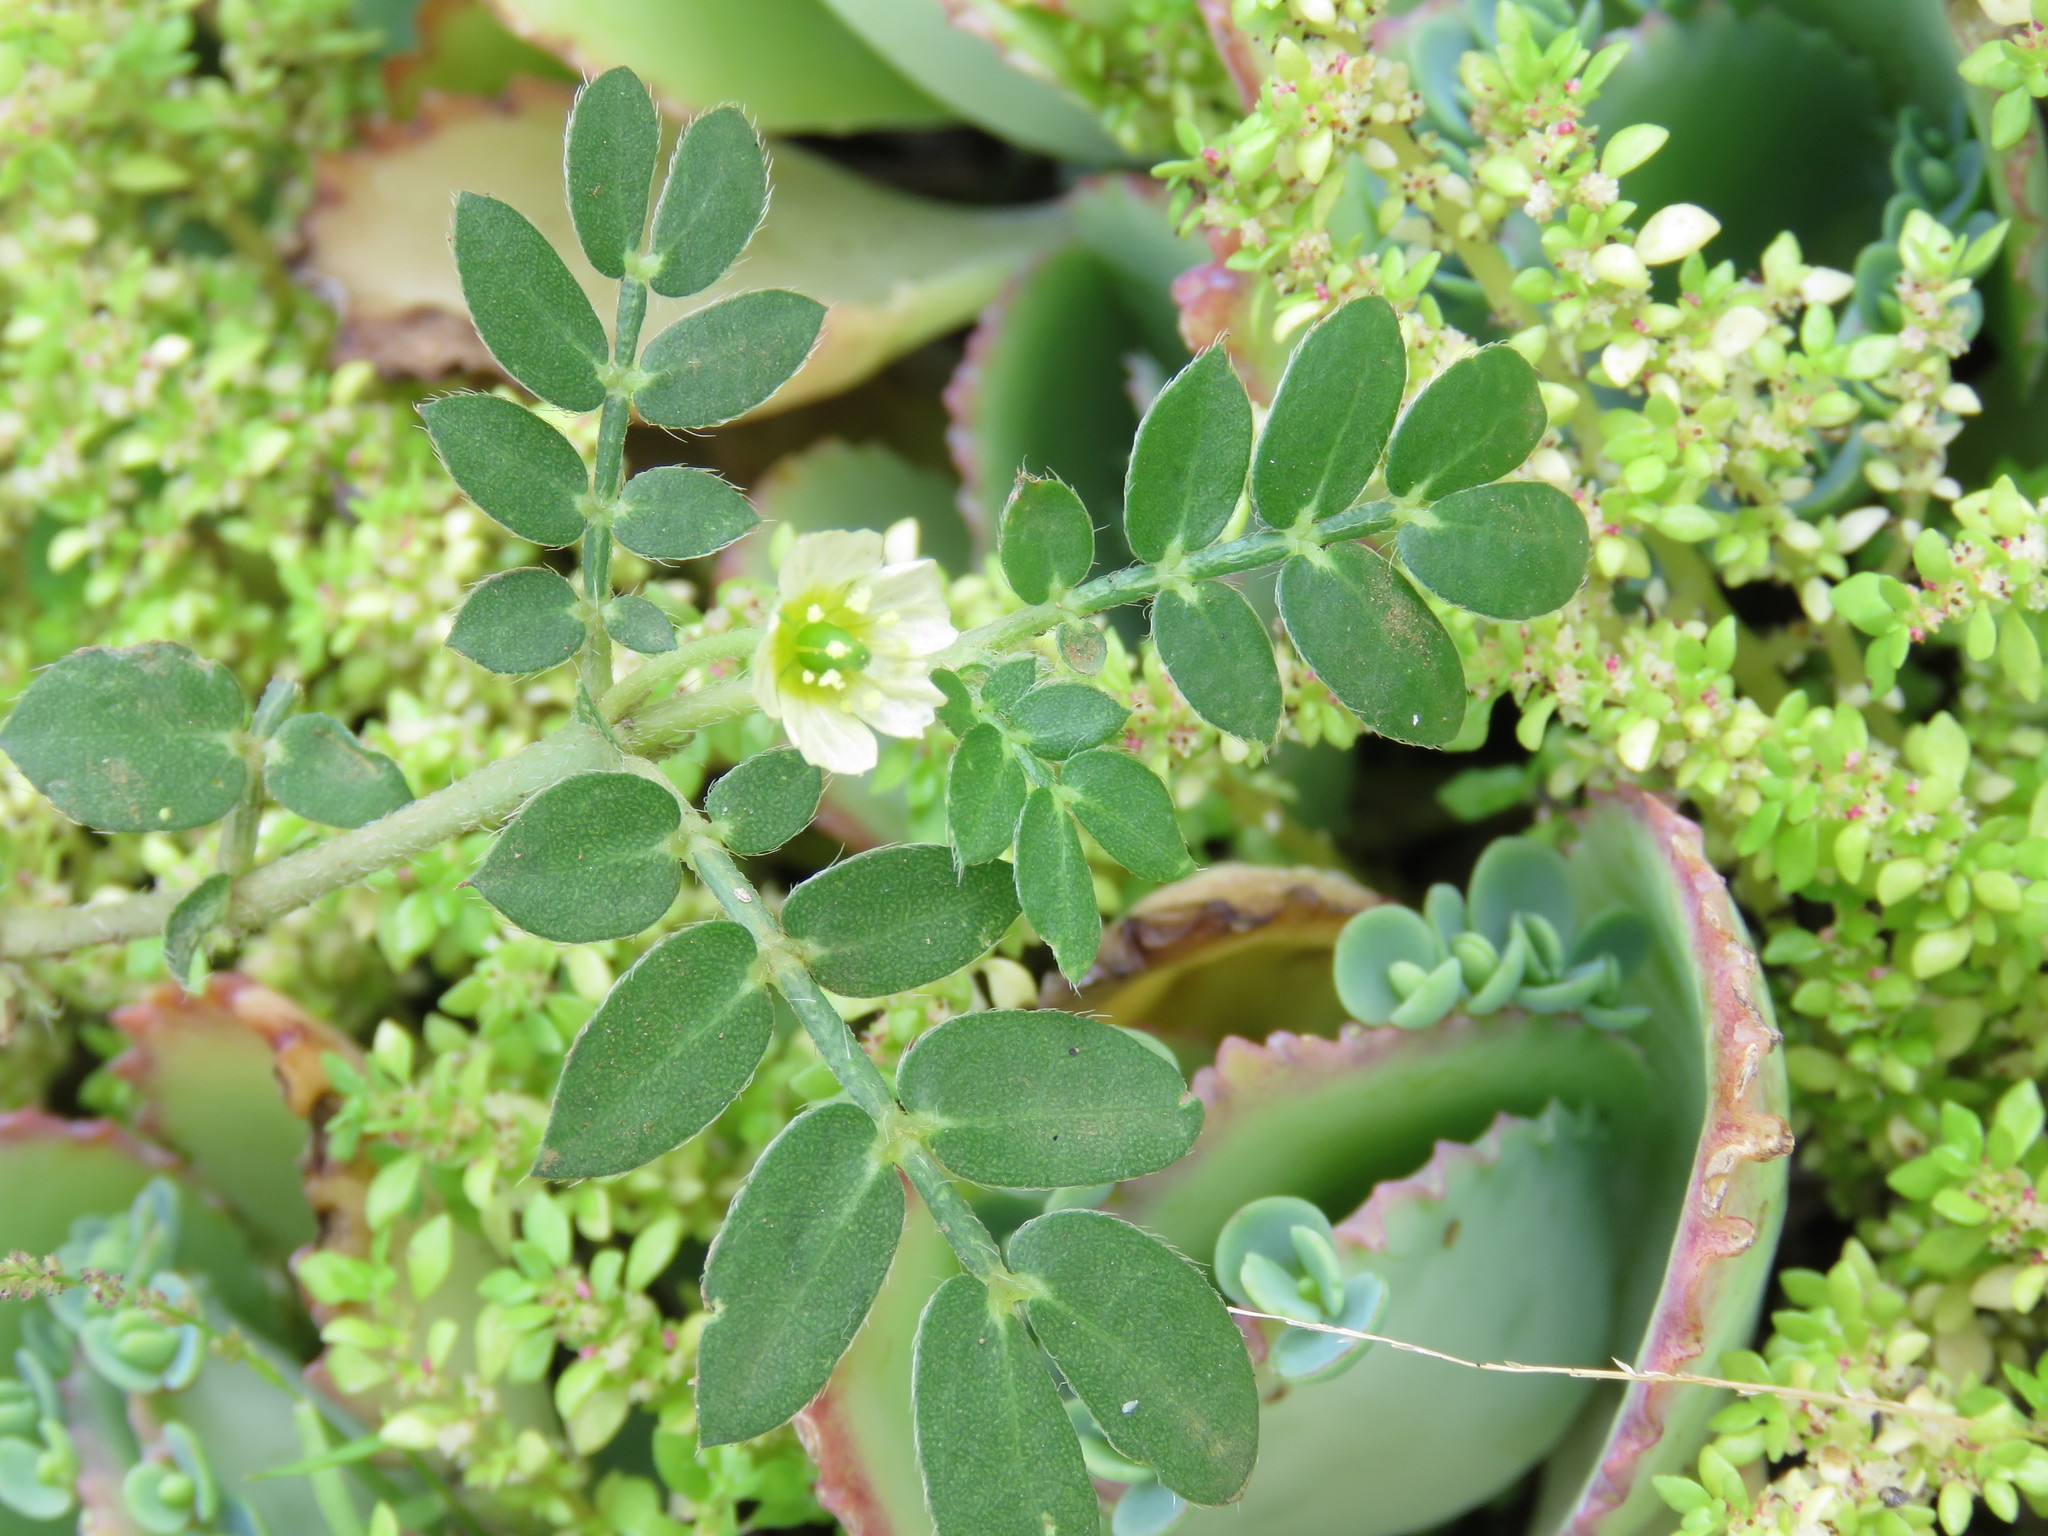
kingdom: Plantae
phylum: Tracheophyta
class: Magnoliopsida
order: Zygophyllales
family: Zygophyllaceae
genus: Kallstroemia
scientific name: Kallstroemia maxima
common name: Big caltropa
